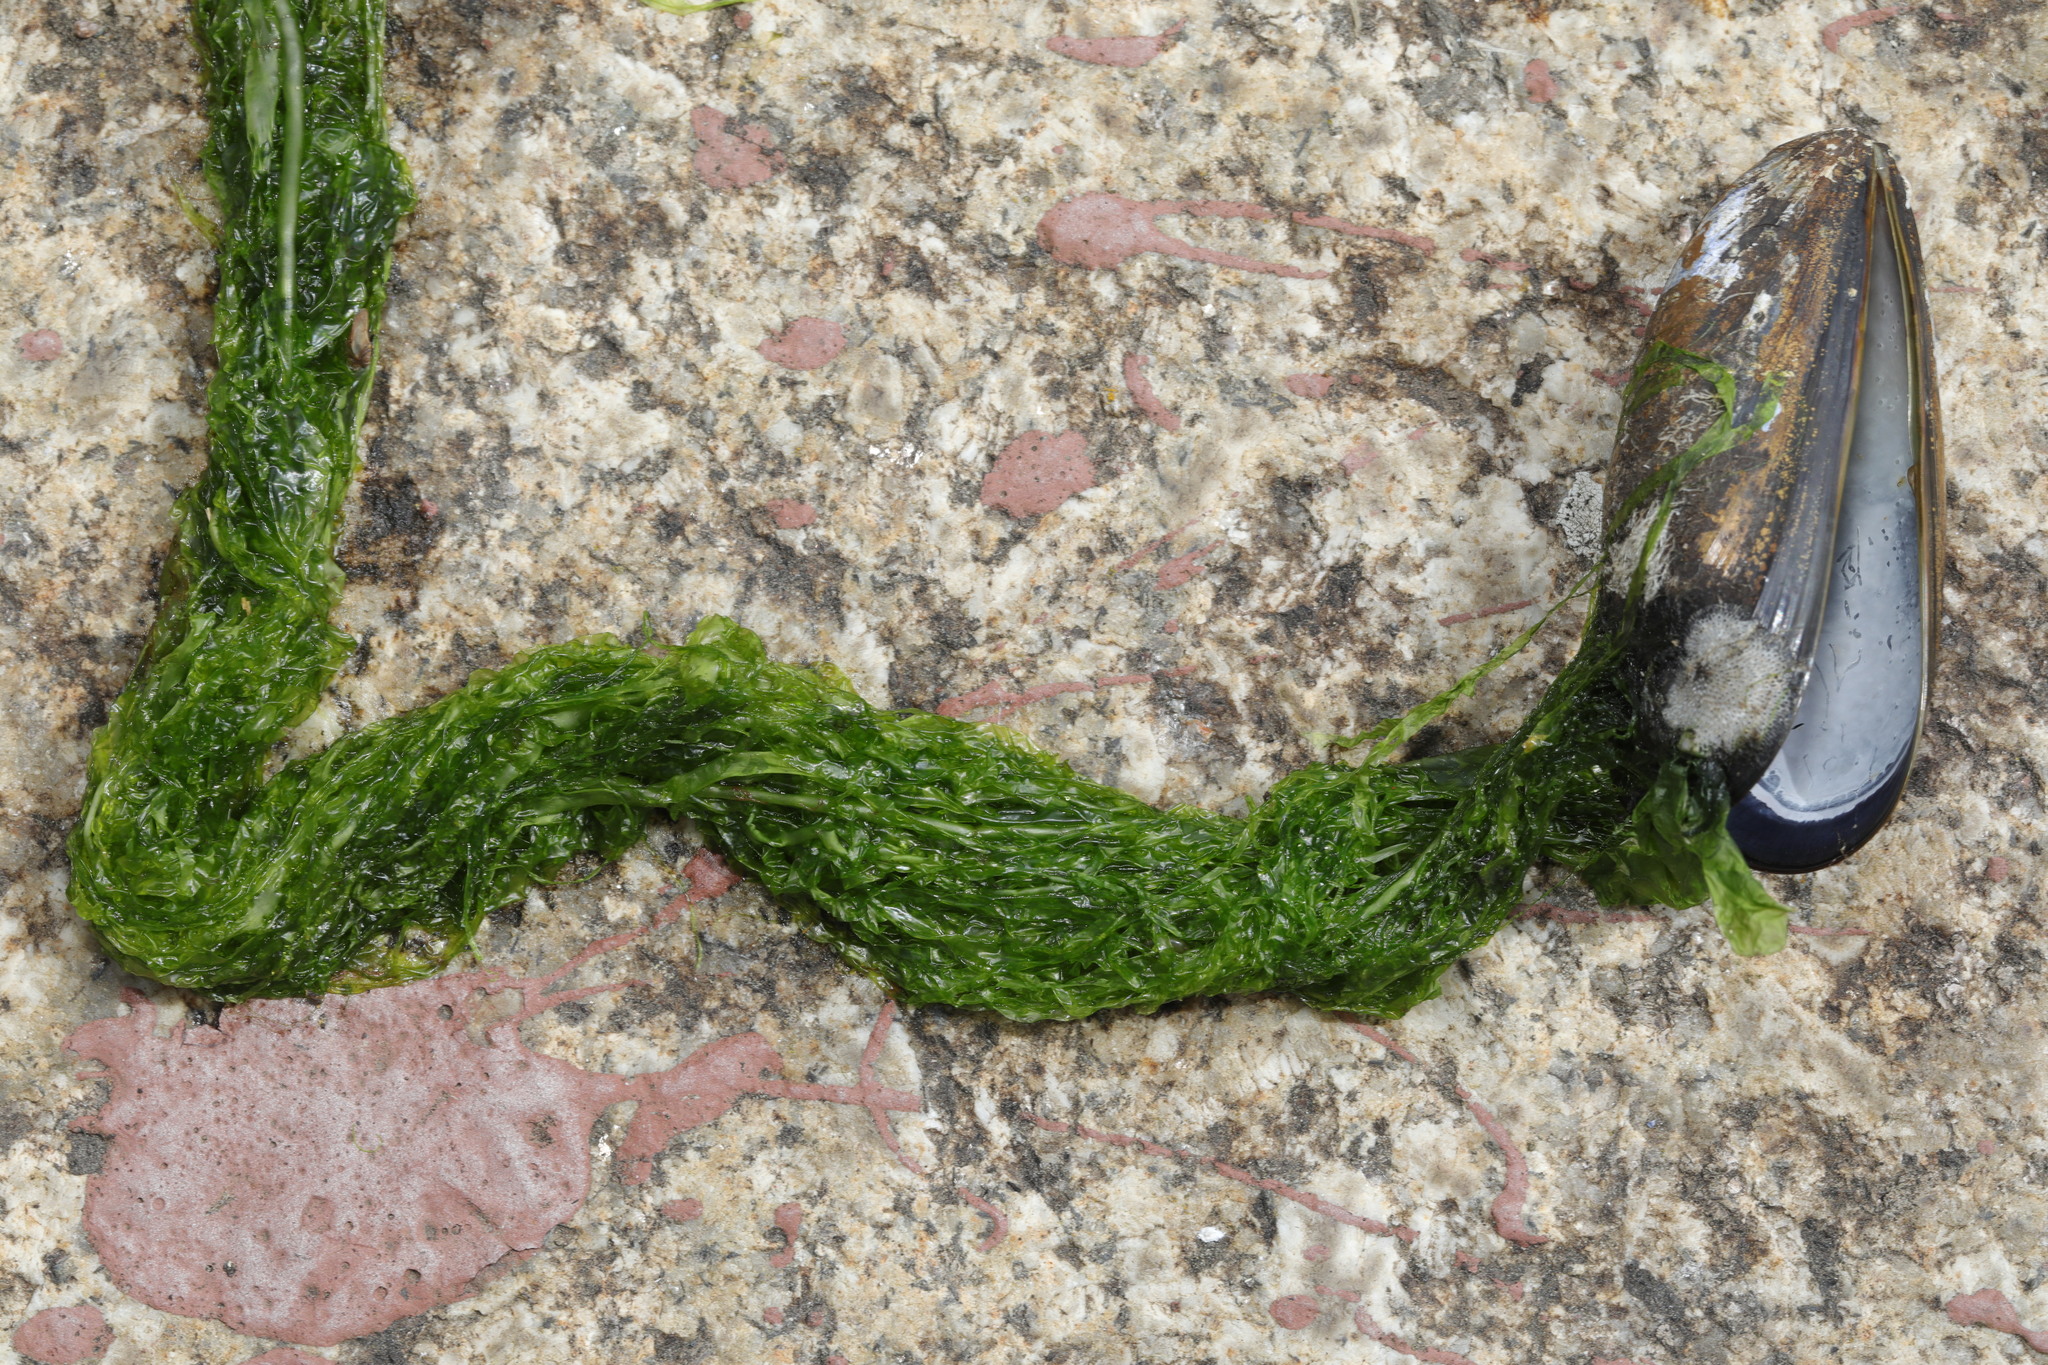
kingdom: Plantae
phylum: Chlorophyta
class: Ulvophyceae
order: Ulvales
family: Ulvaceae
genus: Ulva
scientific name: Ulva intestinalis
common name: Gut weed
